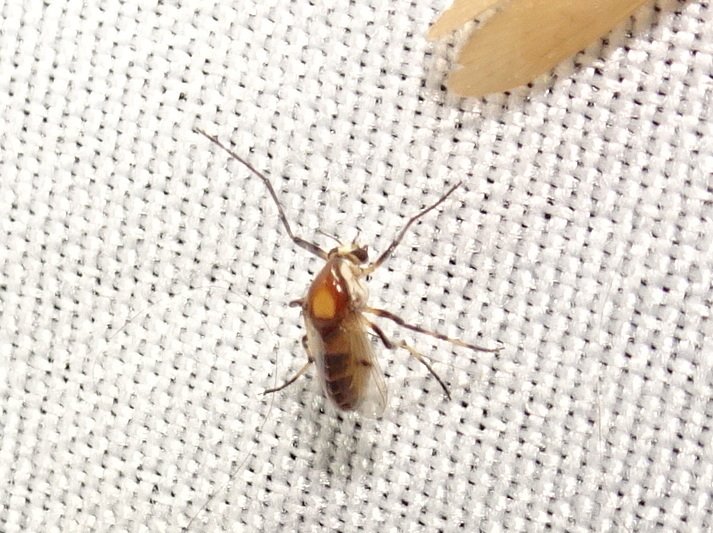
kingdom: Animalia
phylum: Arthropoda
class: Insecta
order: Diptera
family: Chironomidae
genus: Coelotanypus
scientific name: Coelotanypus atus
